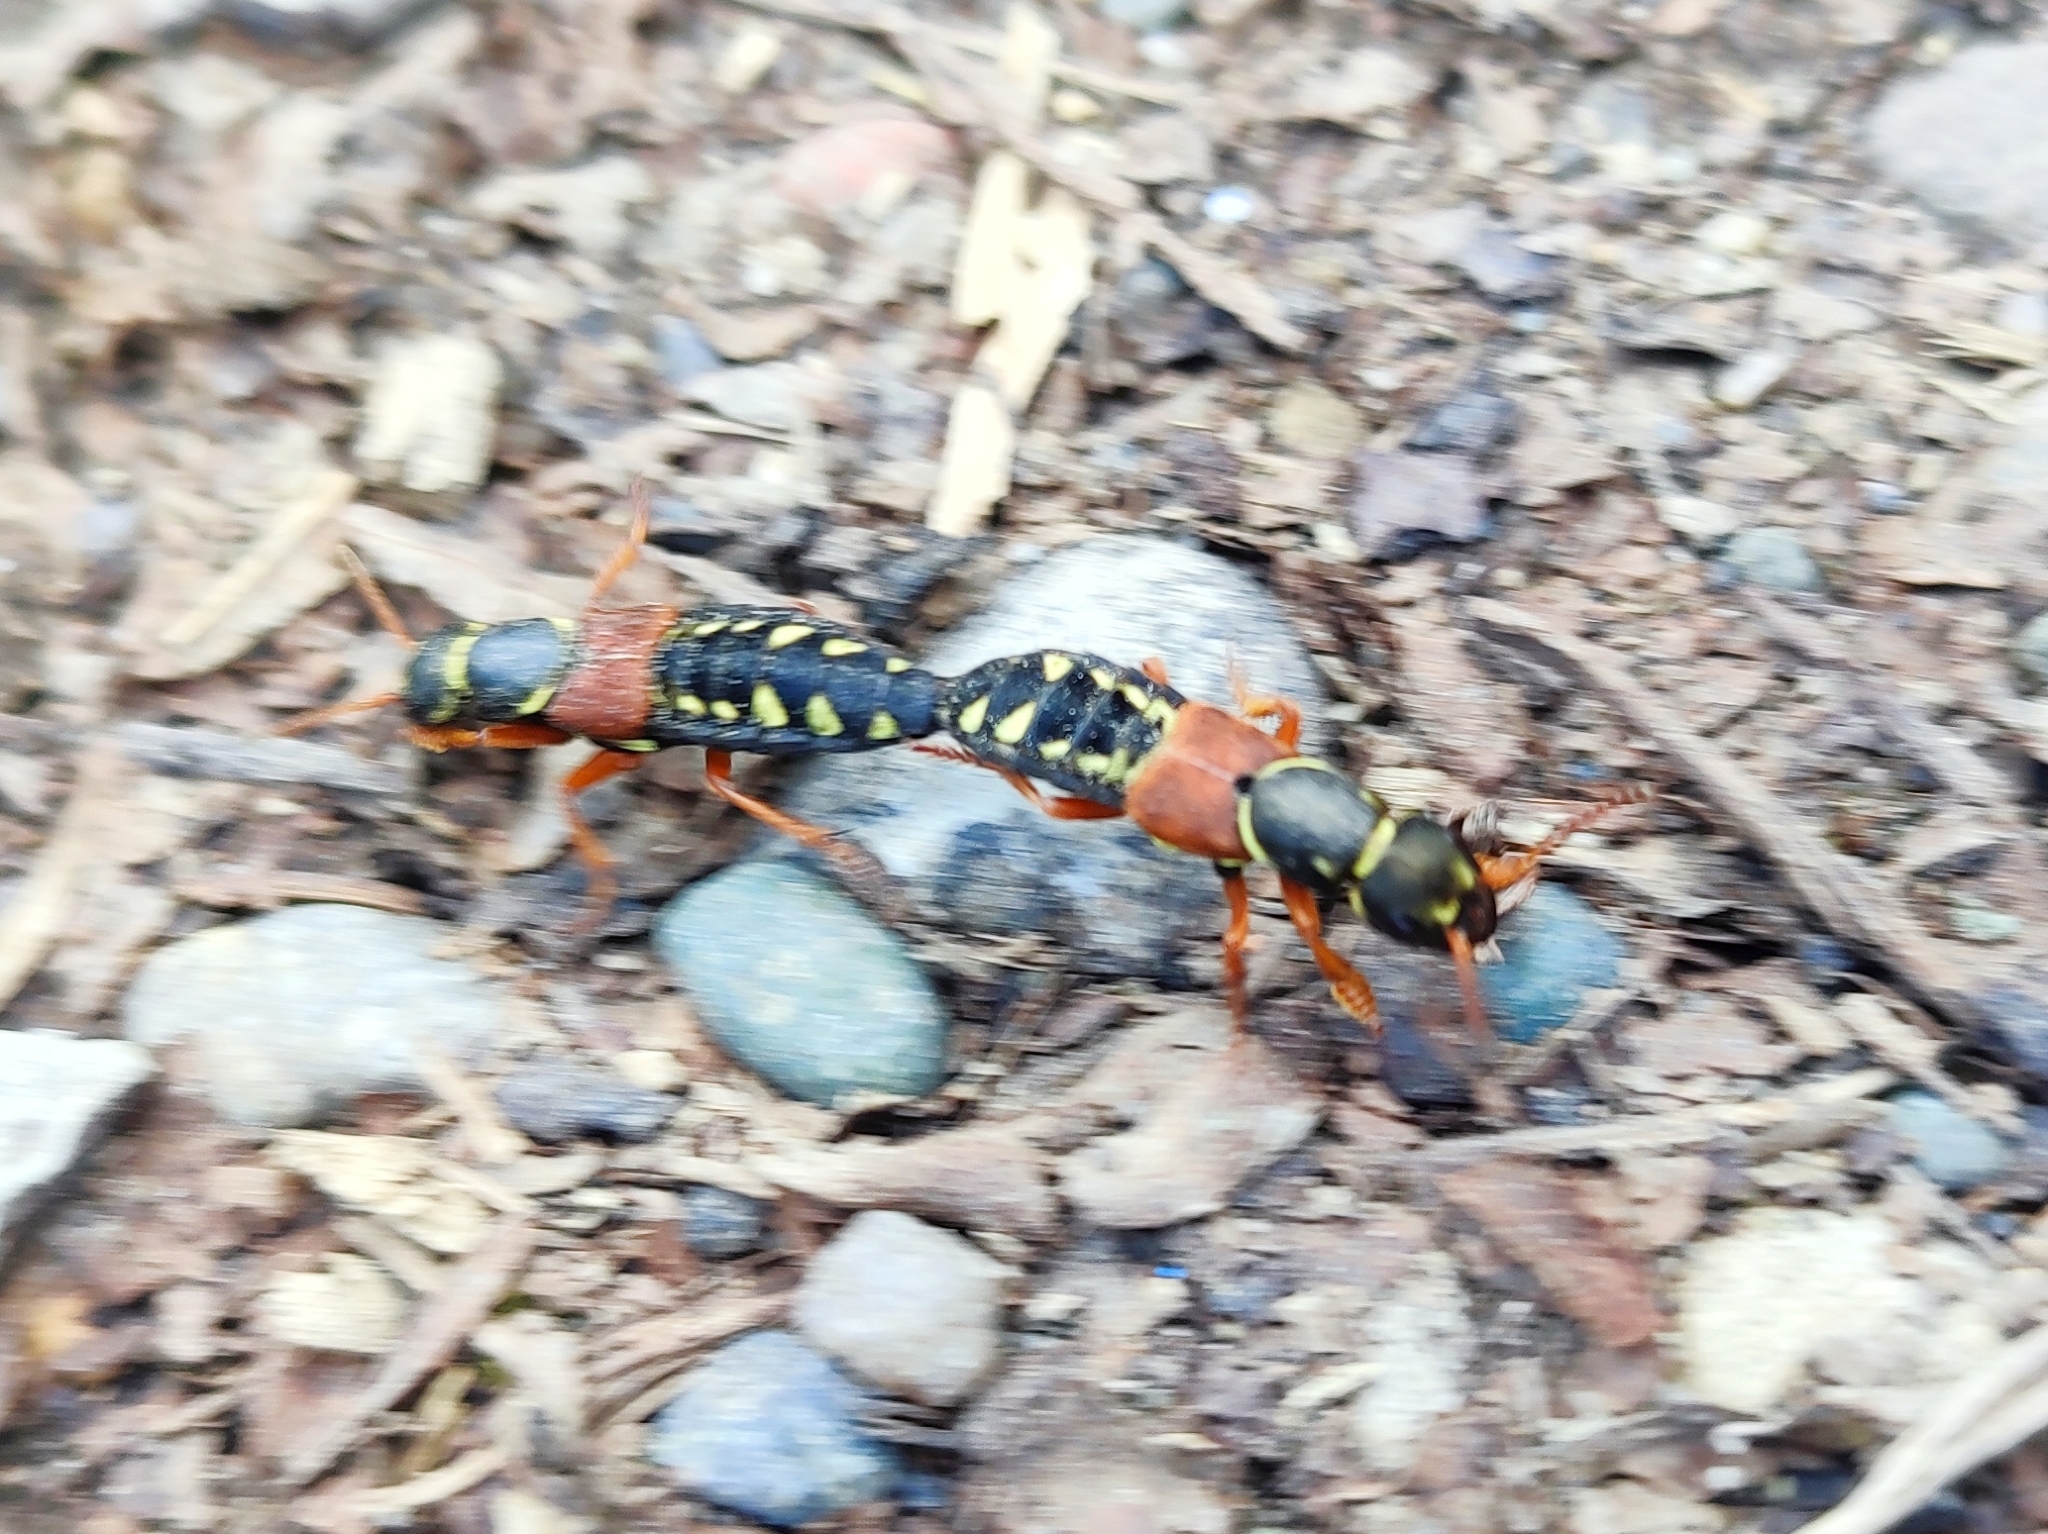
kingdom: Animalia
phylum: Arthropoda
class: Insecta
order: Coleoptera
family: Staphylinidae
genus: Staphylinus
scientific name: Staphylinus caesareus
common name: Staph beetle
